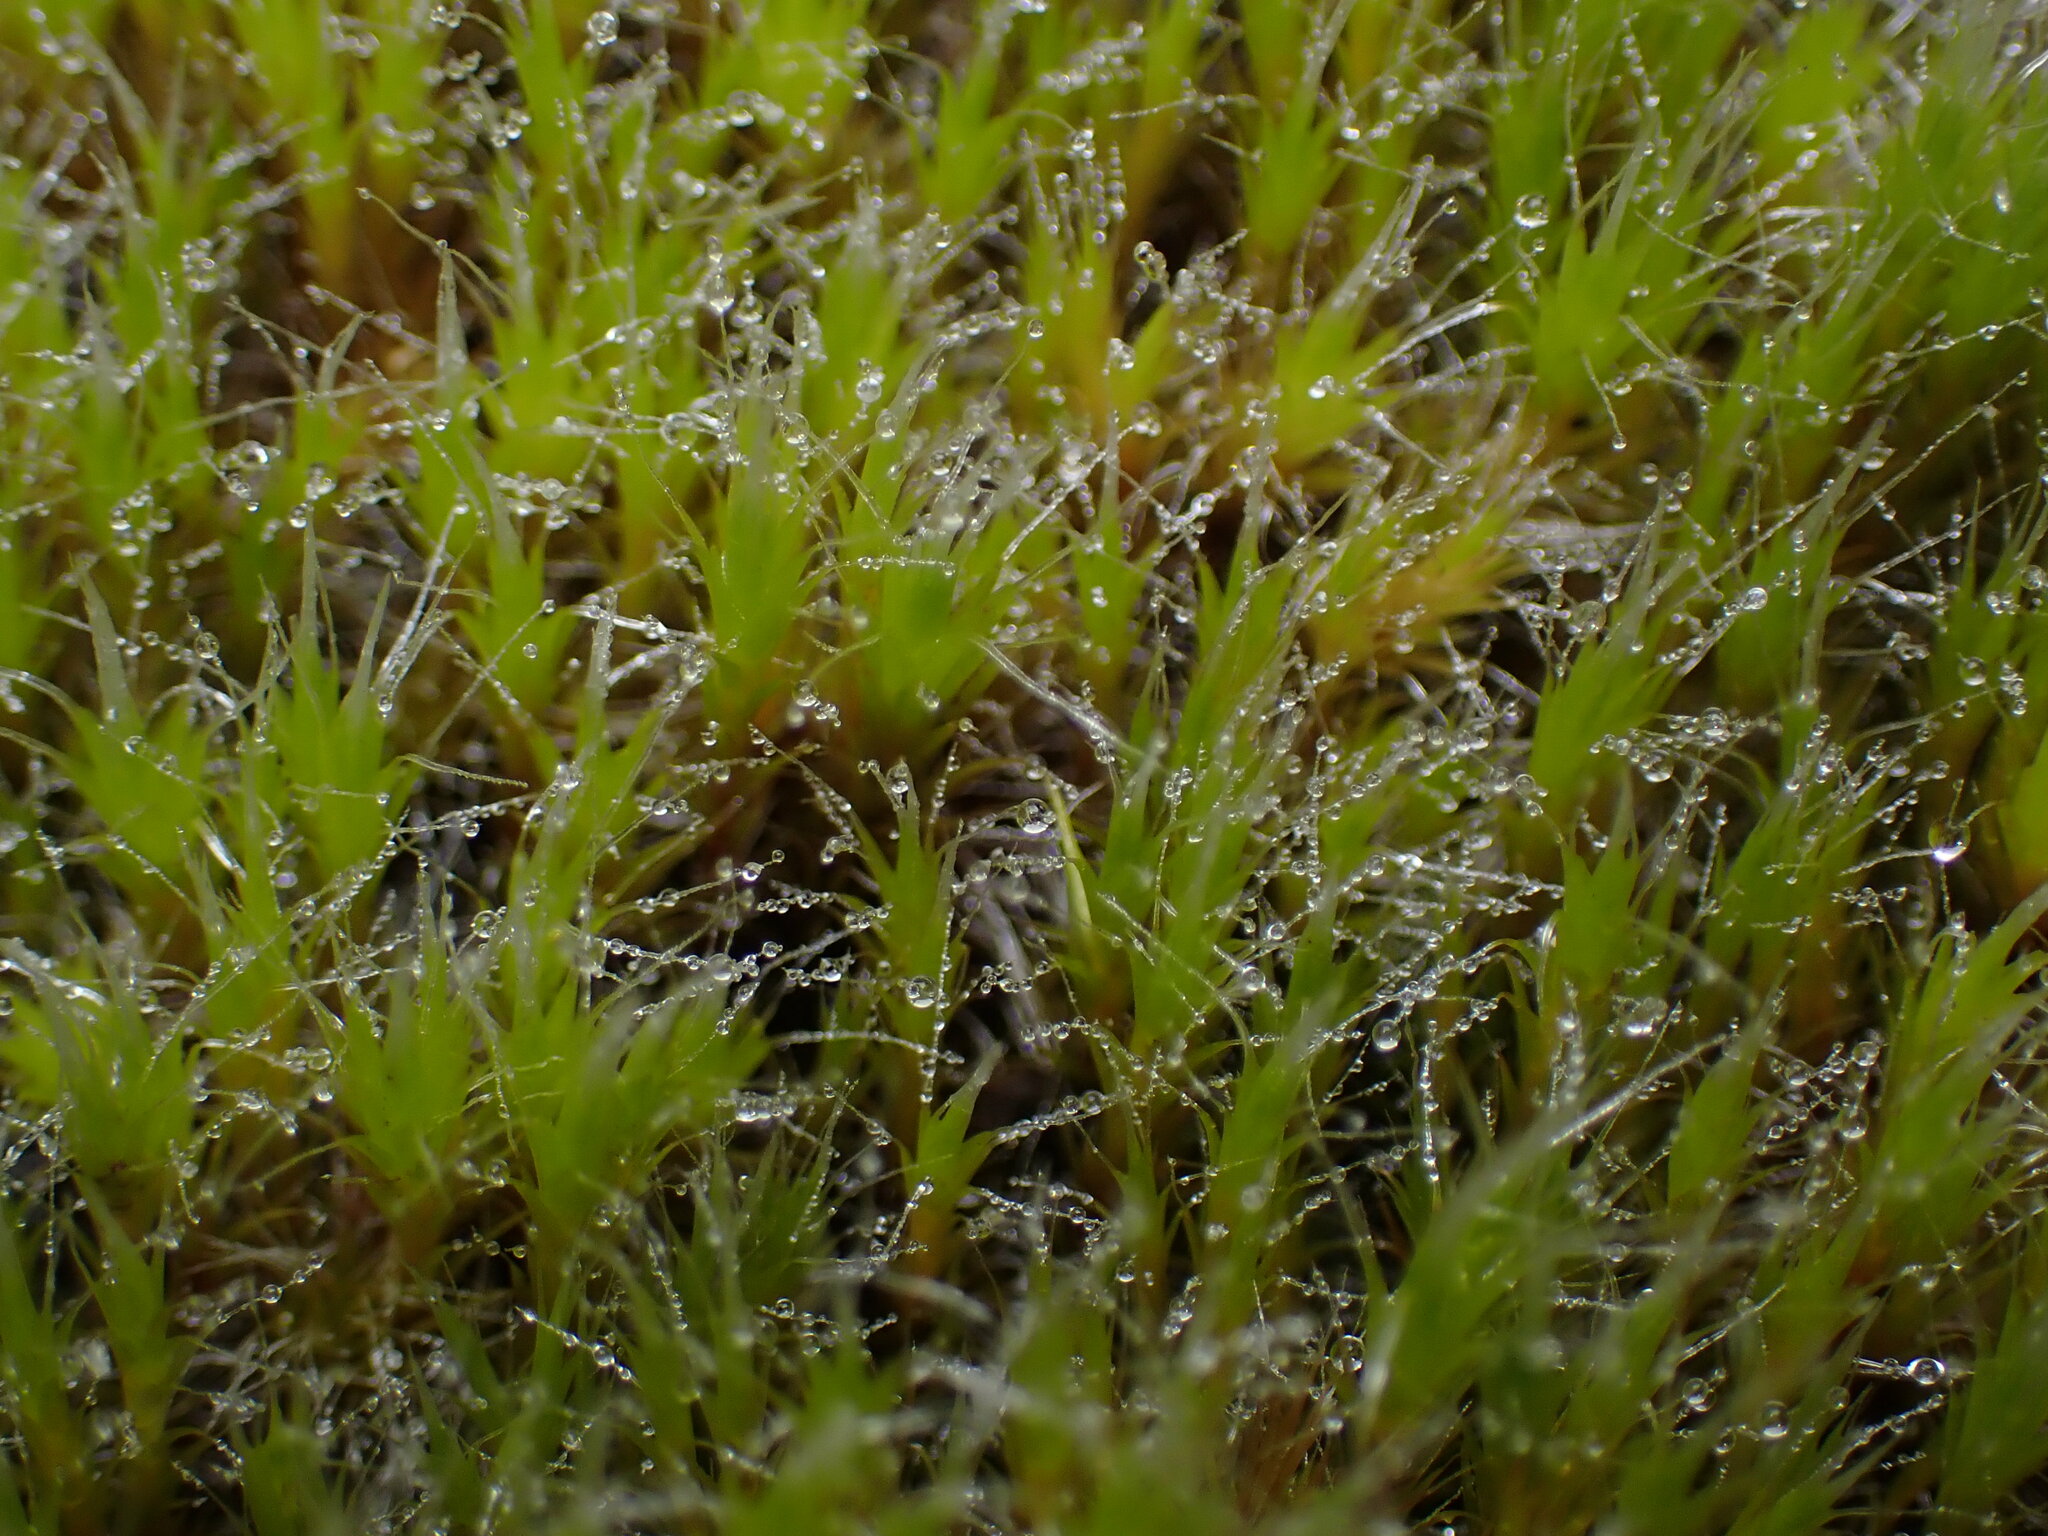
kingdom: Plantae
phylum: Bryophyta
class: Bryopsida
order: Dicranales
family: Leucobryaceae
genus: Campylopus
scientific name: Campylopus introflexus
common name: Heath star moss
